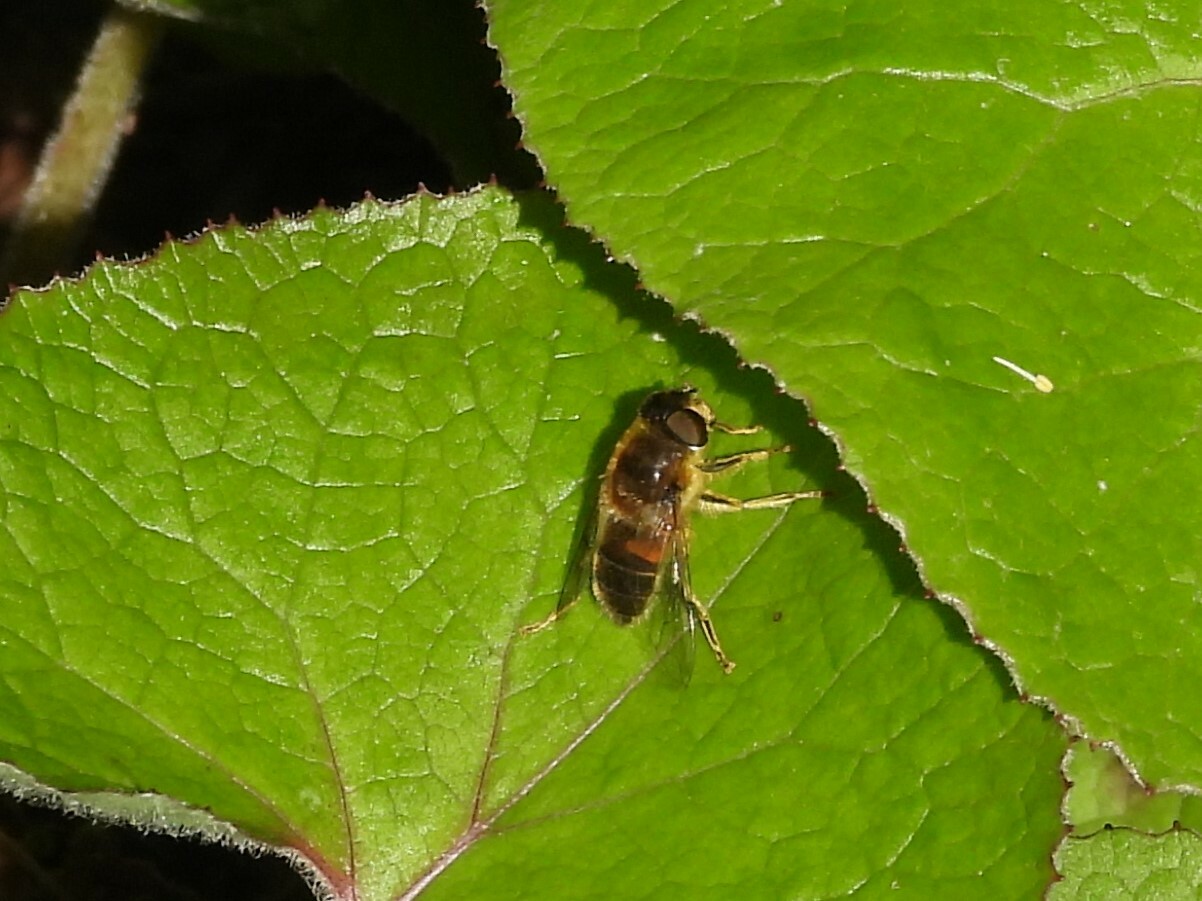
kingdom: Animalia
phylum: Arthropoda
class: Insecta
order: Diptera
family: Syrphidae
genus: Eristalis
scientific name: Eristalis pertinax
